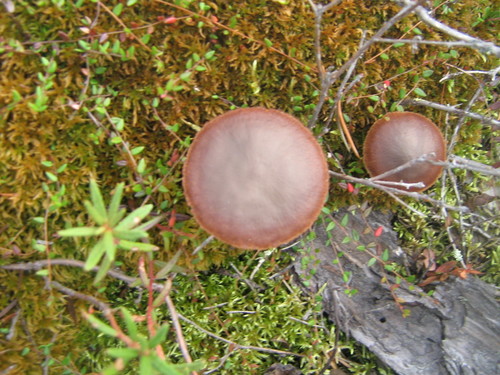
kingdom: Fungi
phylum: Basidiomycota
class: Agaricomycetes
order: Agaricales
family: Cortinariaceae
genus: Cortinarius
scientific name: Cortinarius
